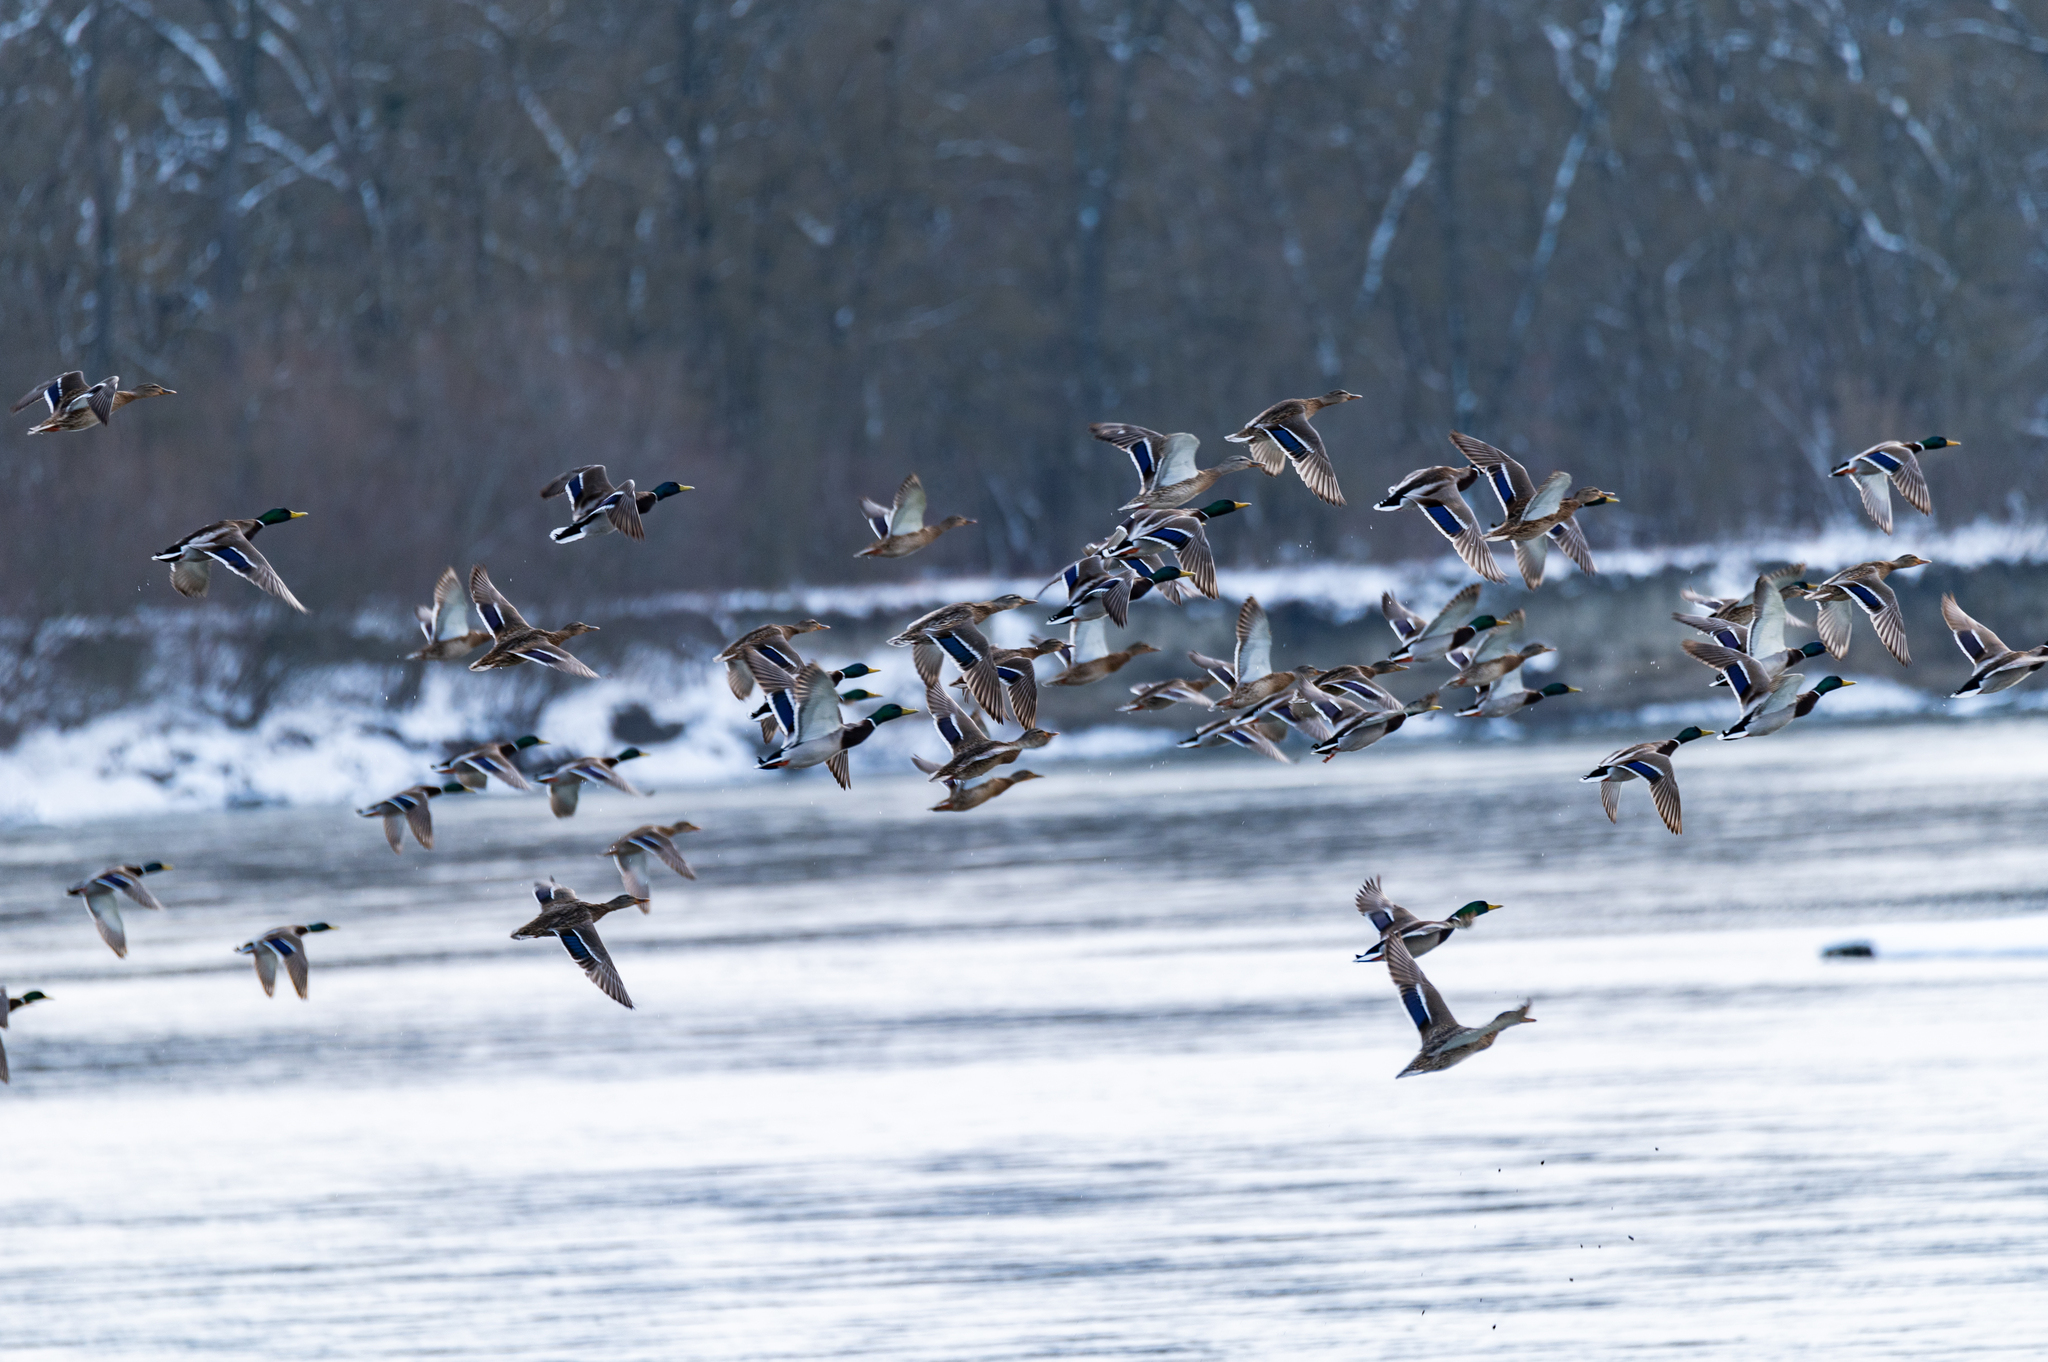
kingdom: Animalia
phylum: Chordata
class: Aves
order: Anseriformes
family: Anatidae
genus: Anas
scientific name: Anas platyrhynchos
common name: Mallard
